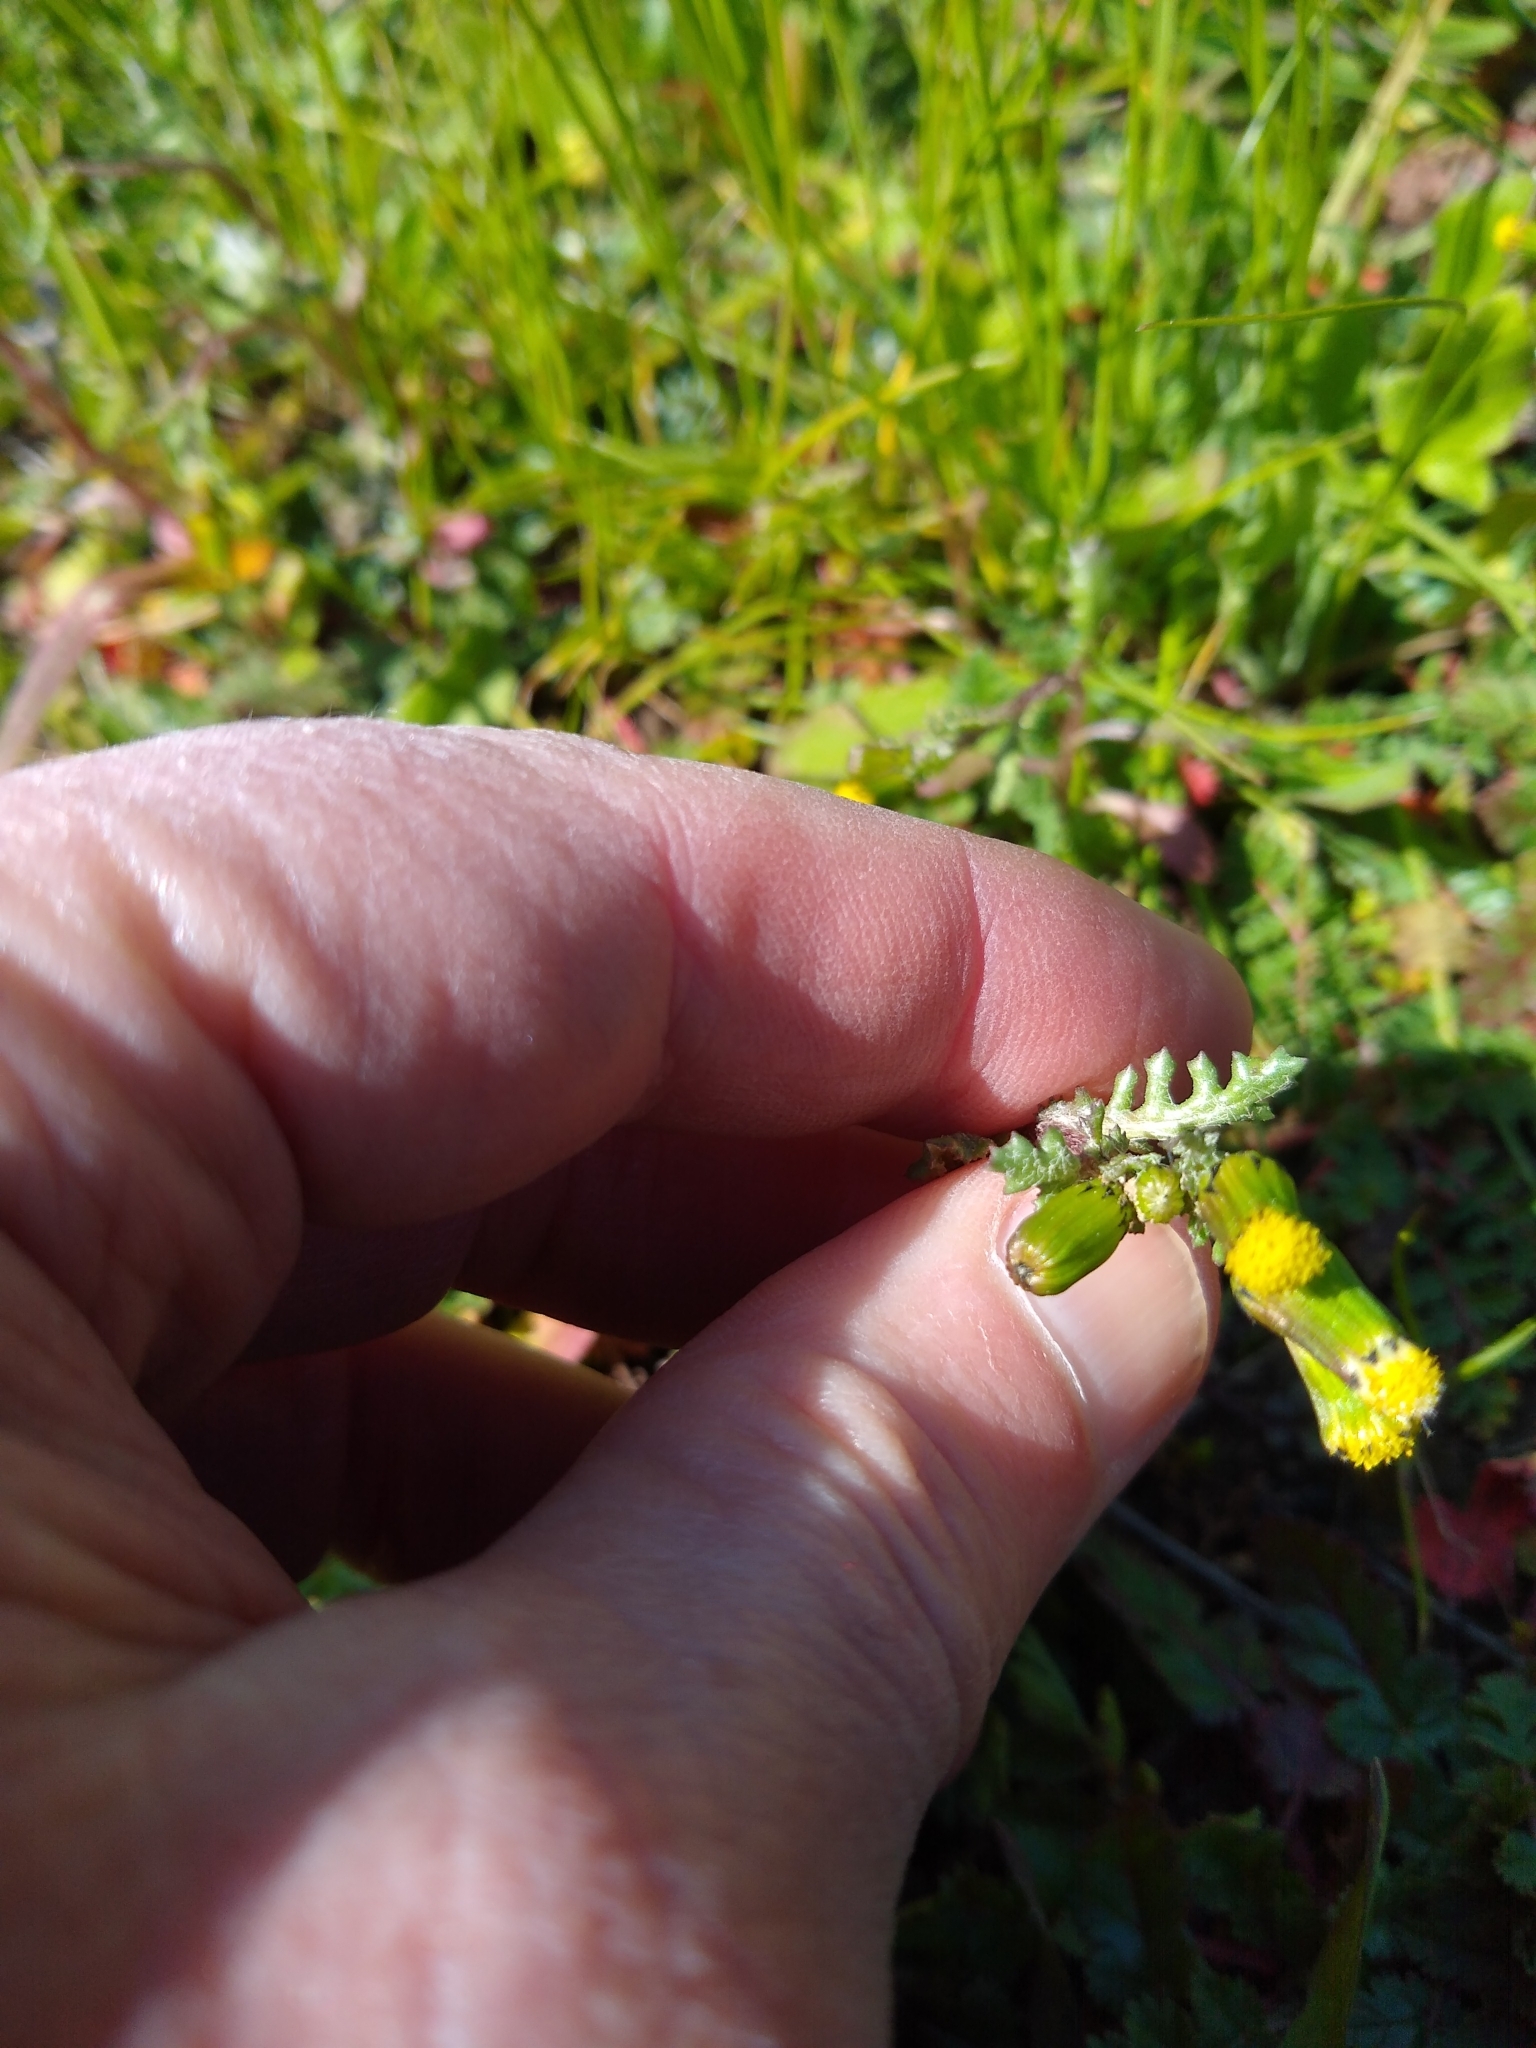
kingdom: Plantae
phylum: Tracheophyta
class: Magnoliopsida
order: Asterales
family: Asteraceae
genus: Senecio
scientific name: Senecio vulgaris
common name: Old-man-in-the-spring
